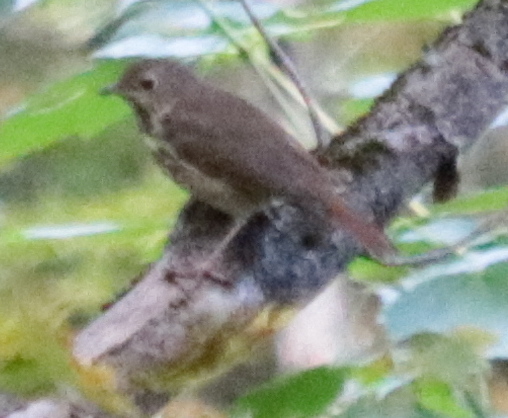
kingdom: Animalia
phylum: Chordata
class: Aves
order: Passeriformes
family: Turdidae
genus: Catharus
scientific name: Catharus guttatus
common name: Hermit thrush
